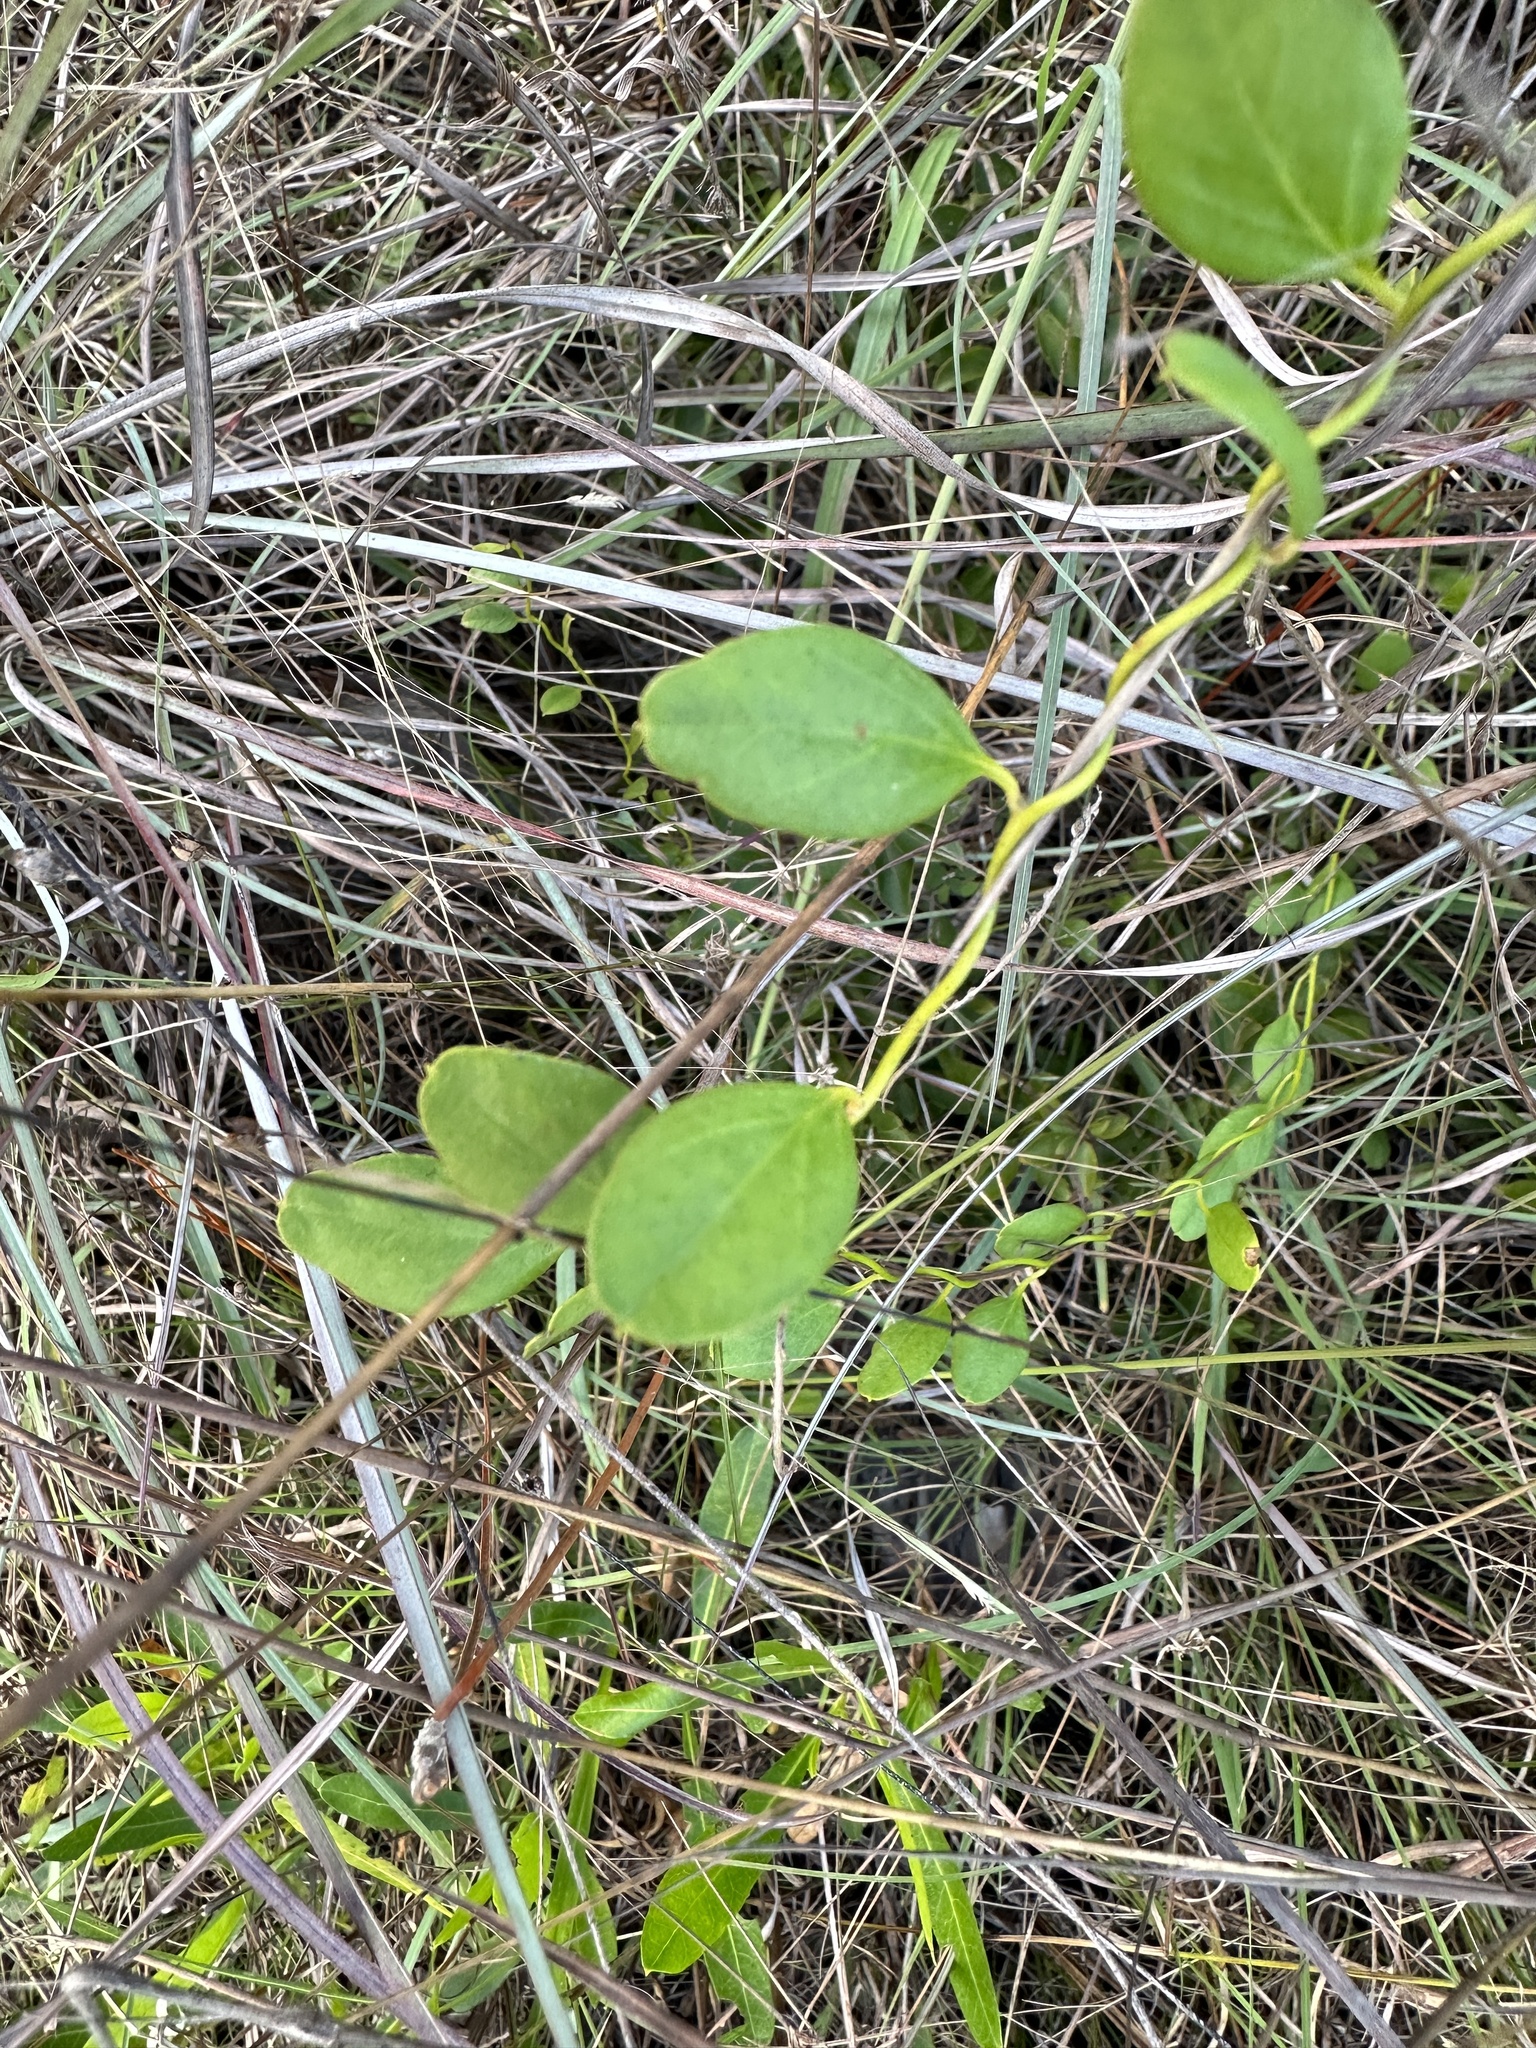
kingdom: Plantae
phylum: Tracheophyta
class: Magnoliopsida
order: Solanales
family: Convolvulaceae
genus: Jacquemontia
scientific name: Jacquemontia curtissii
